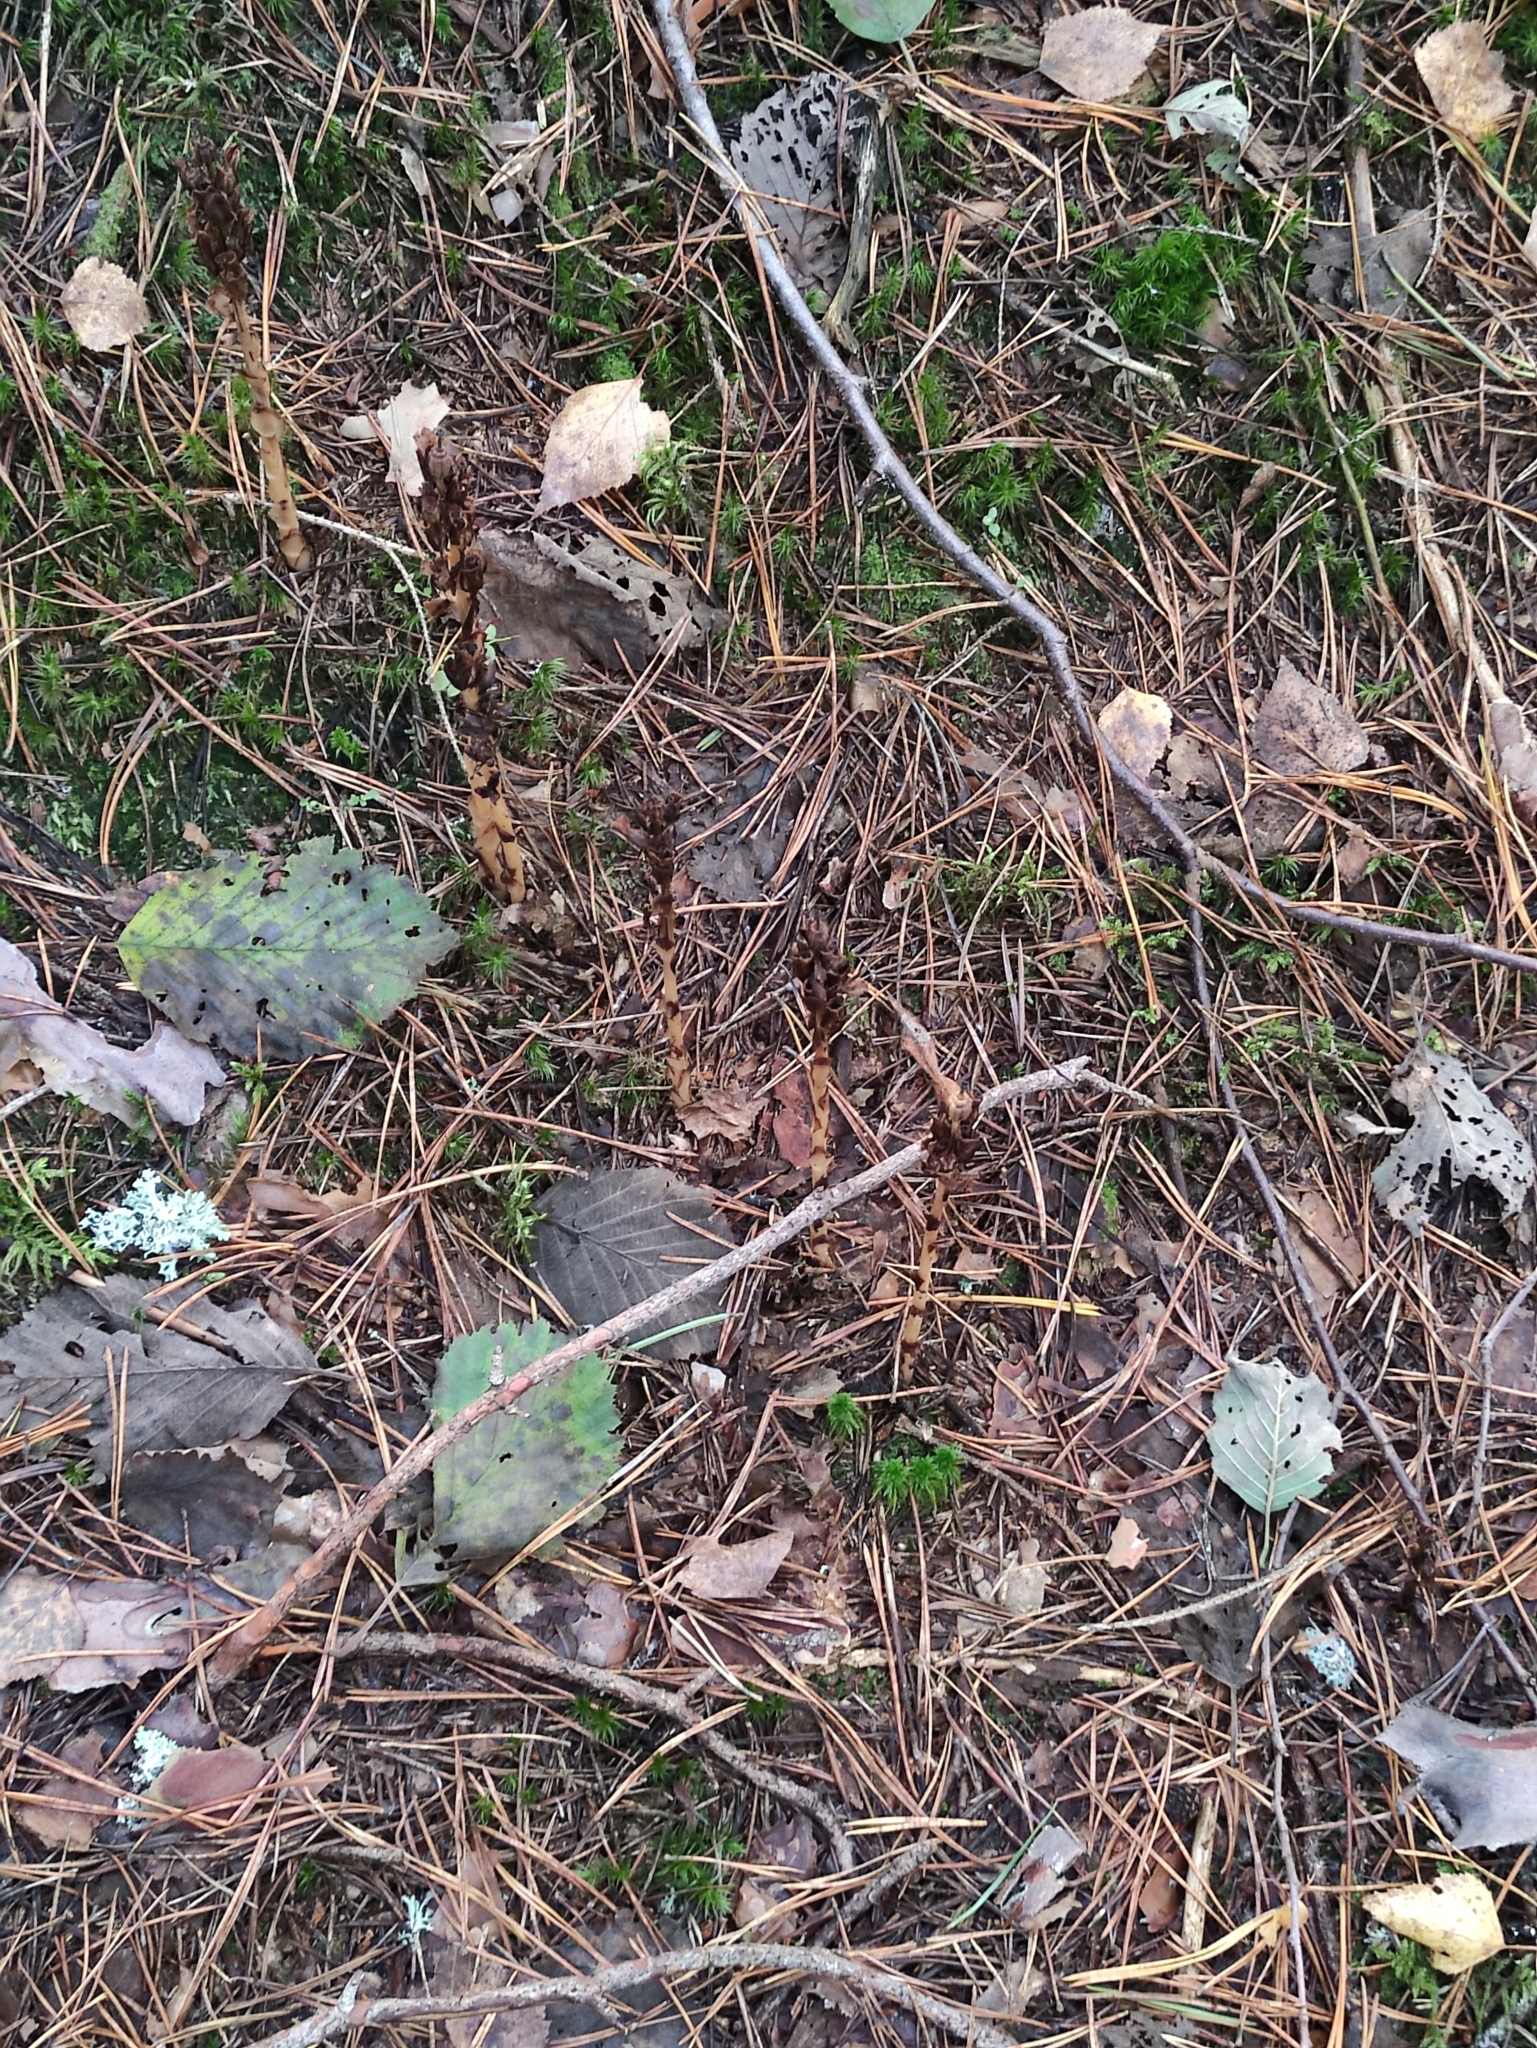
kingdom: Plantae
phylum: Tracheophyta
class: Magnoliopsida
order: Ericales
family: Ericaceae
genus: Hypopitys
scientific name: Hypopitys monotropa
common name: Yellow bird's-nest
